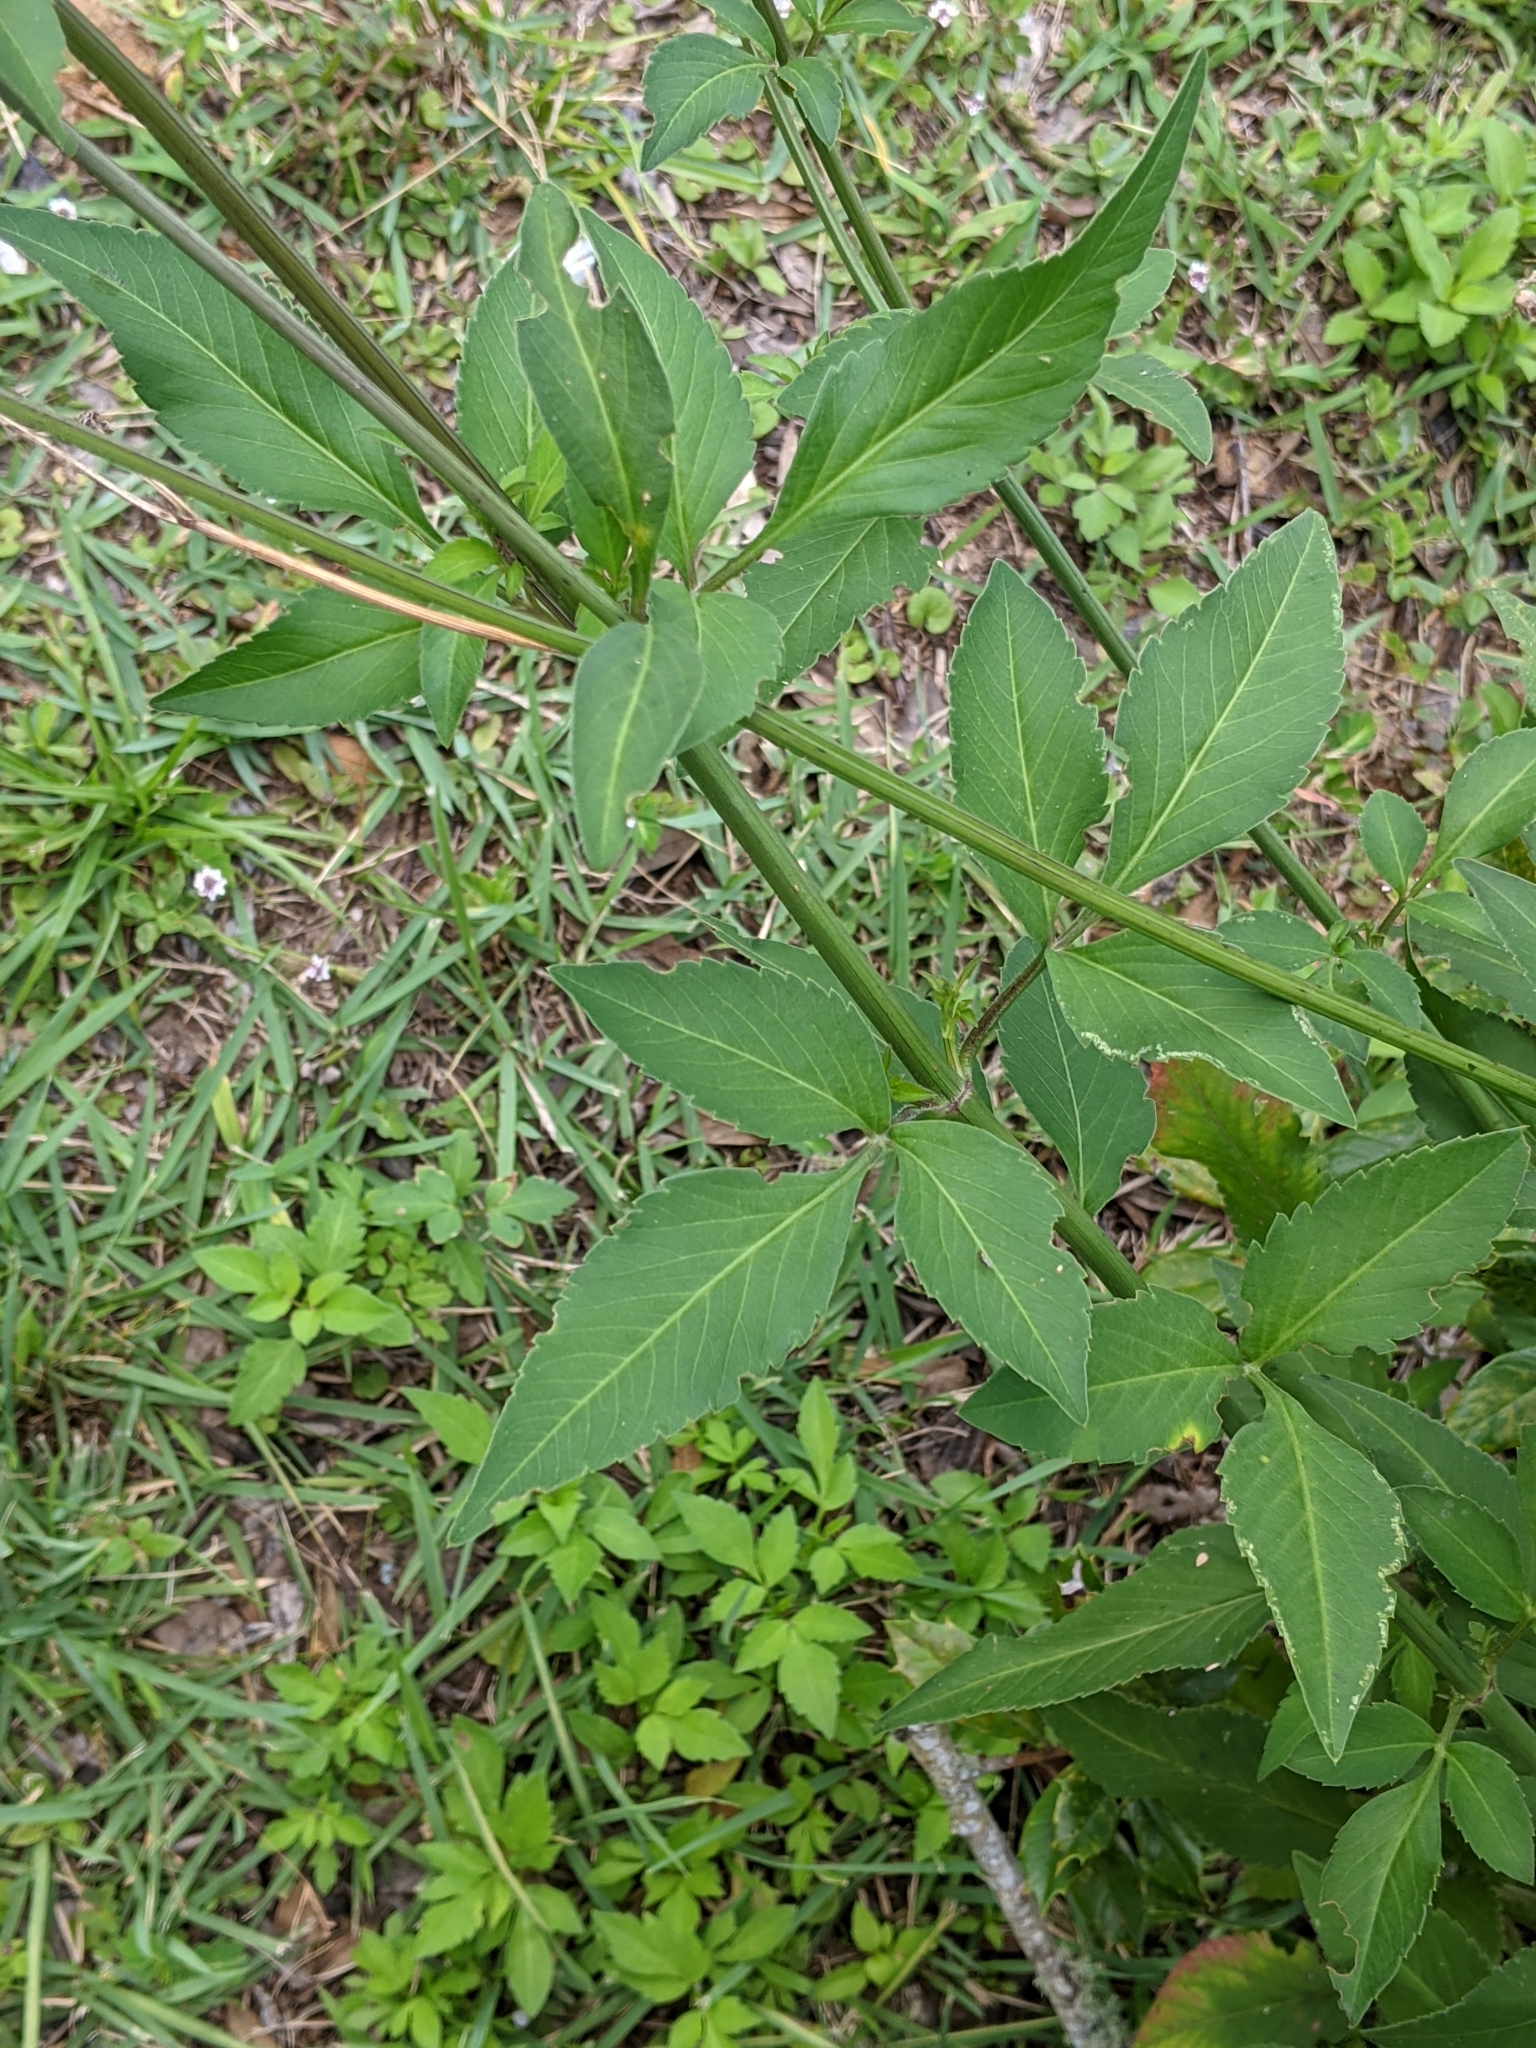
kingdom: Plantae
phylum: Tracheophyta
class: Magnoliopsida
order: Asterales
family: Asteraceae
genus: Bidens
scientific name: Bidens alba
